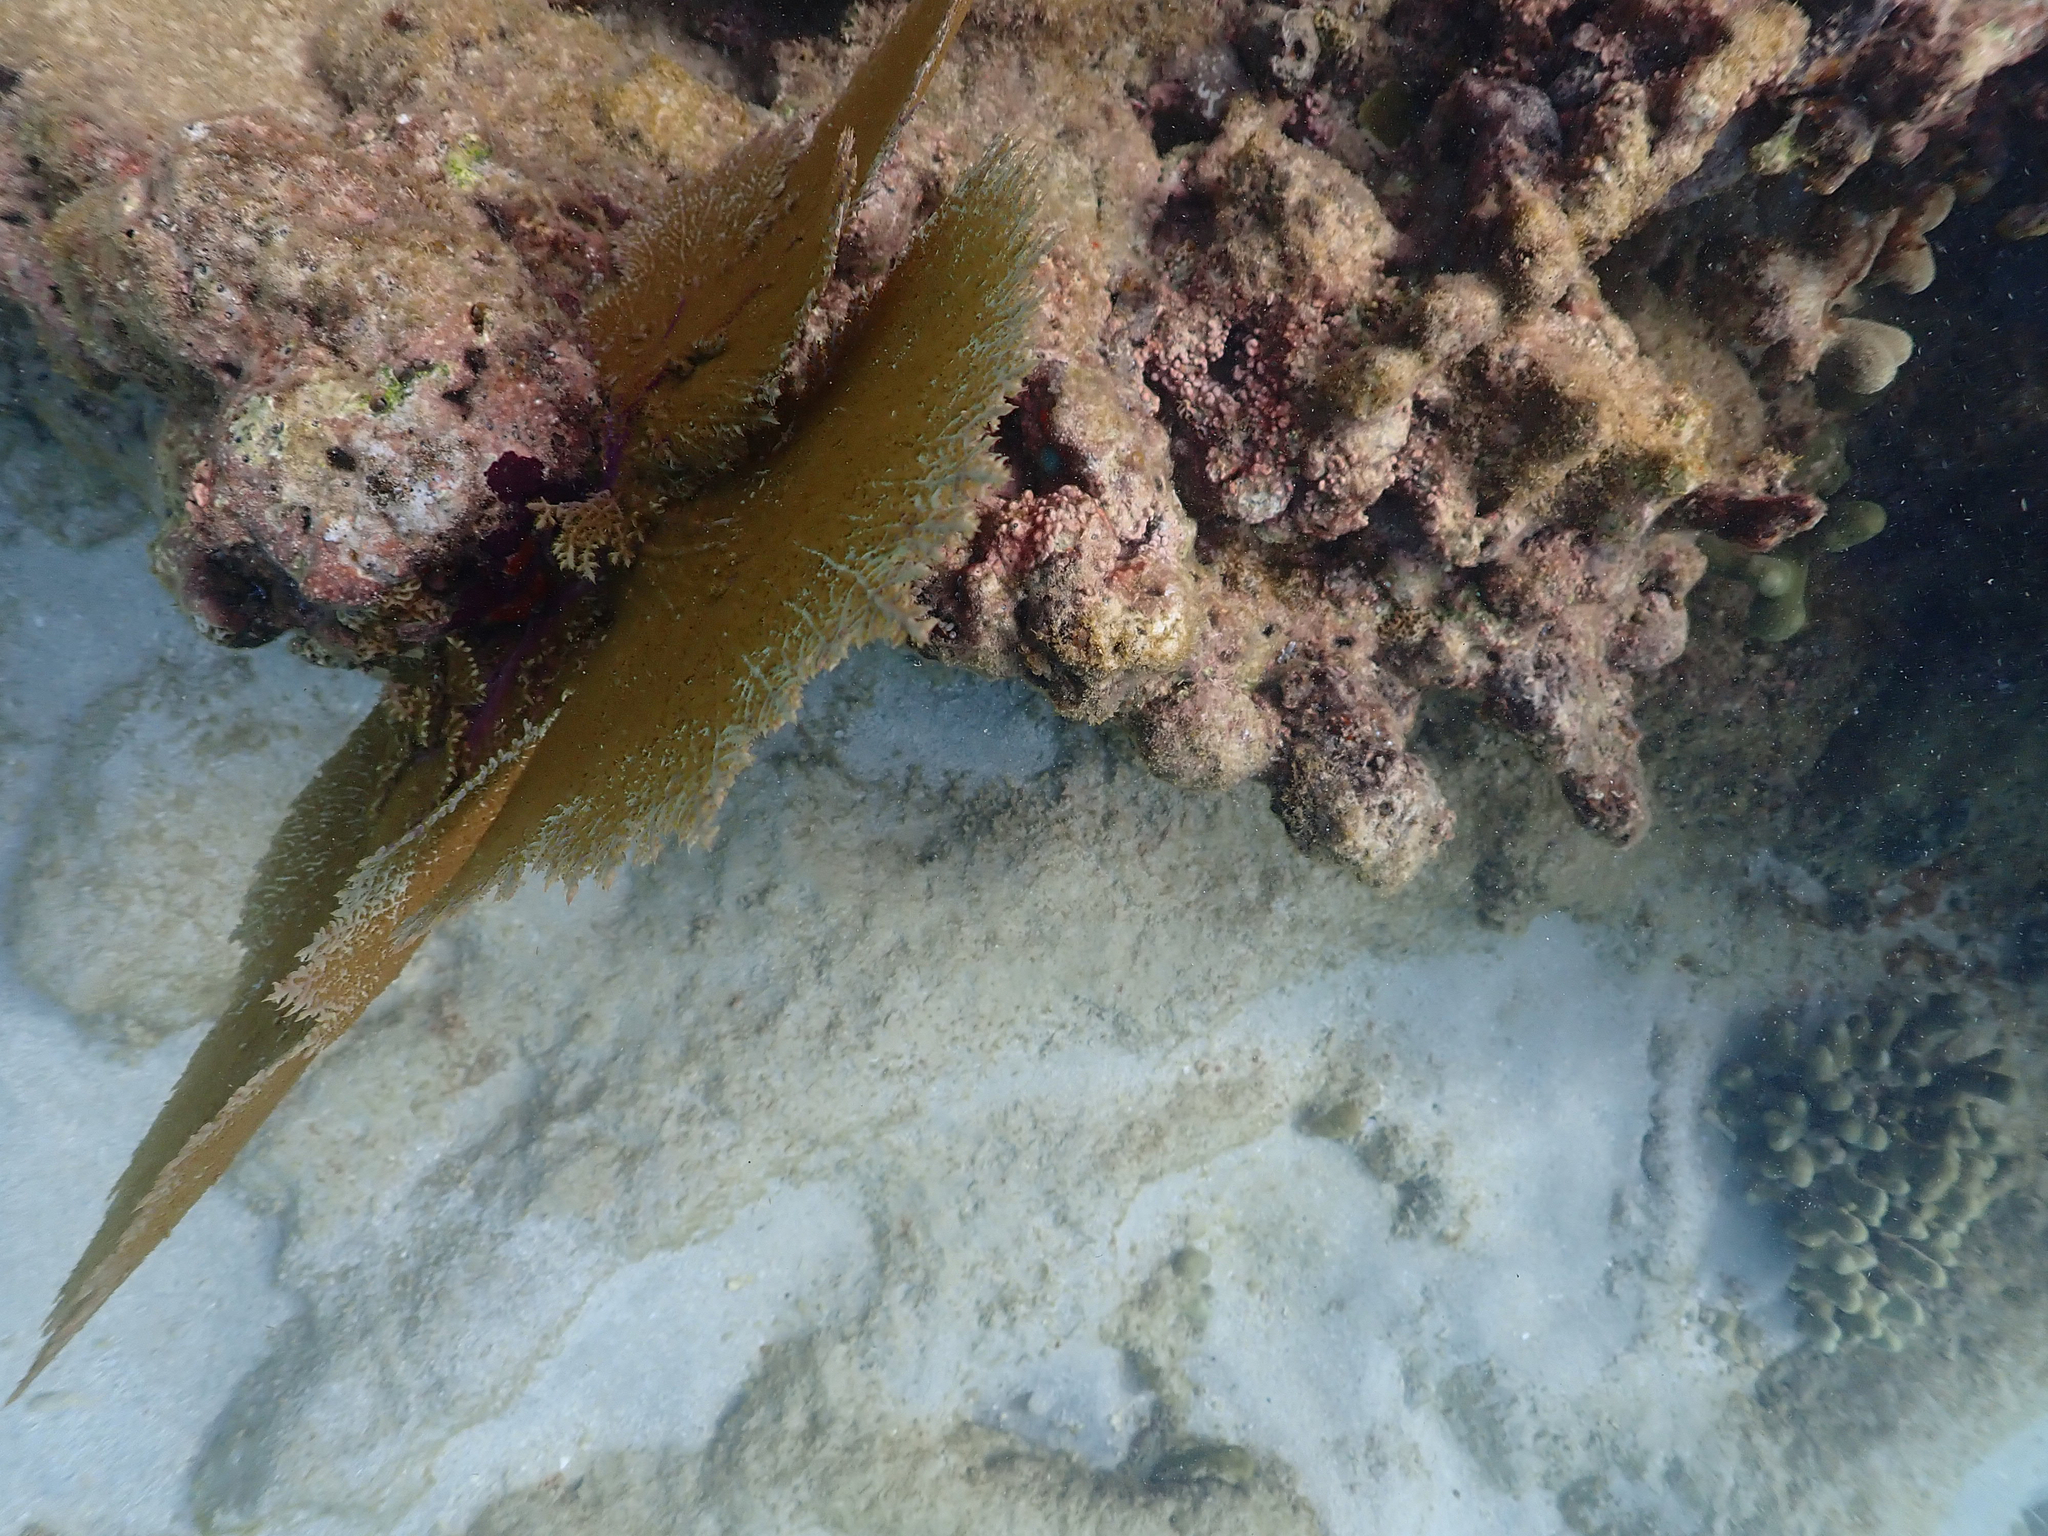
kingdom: Animalia
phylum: Cnidaria
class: Anthozoa
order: Malacalcyonacea
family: Gorgoniidae
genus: Gorgonia
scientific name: Gorgonia ventalina
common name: Common sea fan
